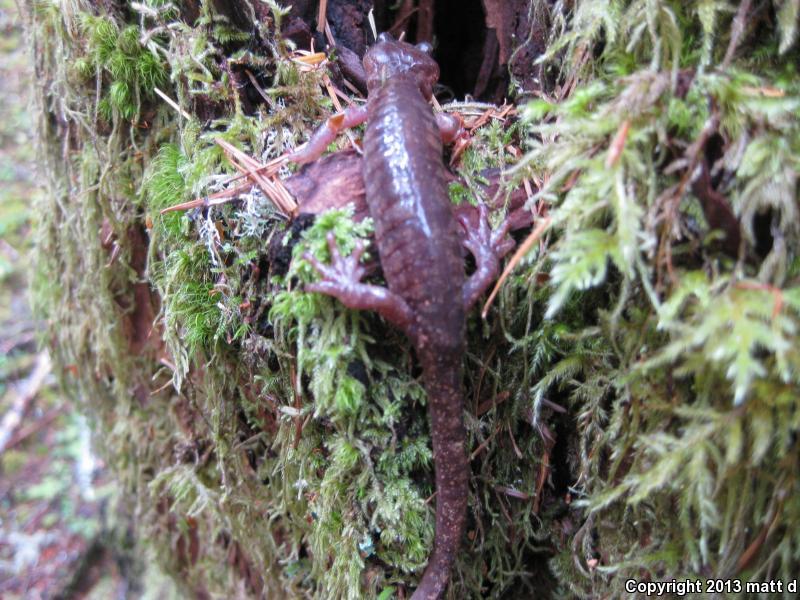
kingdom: Animalia
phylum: Chordata
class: Amphibia
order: Caudata
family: Plethodontidae
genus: Aneides
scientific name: Aneides ferreus
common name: Clouded salamander
